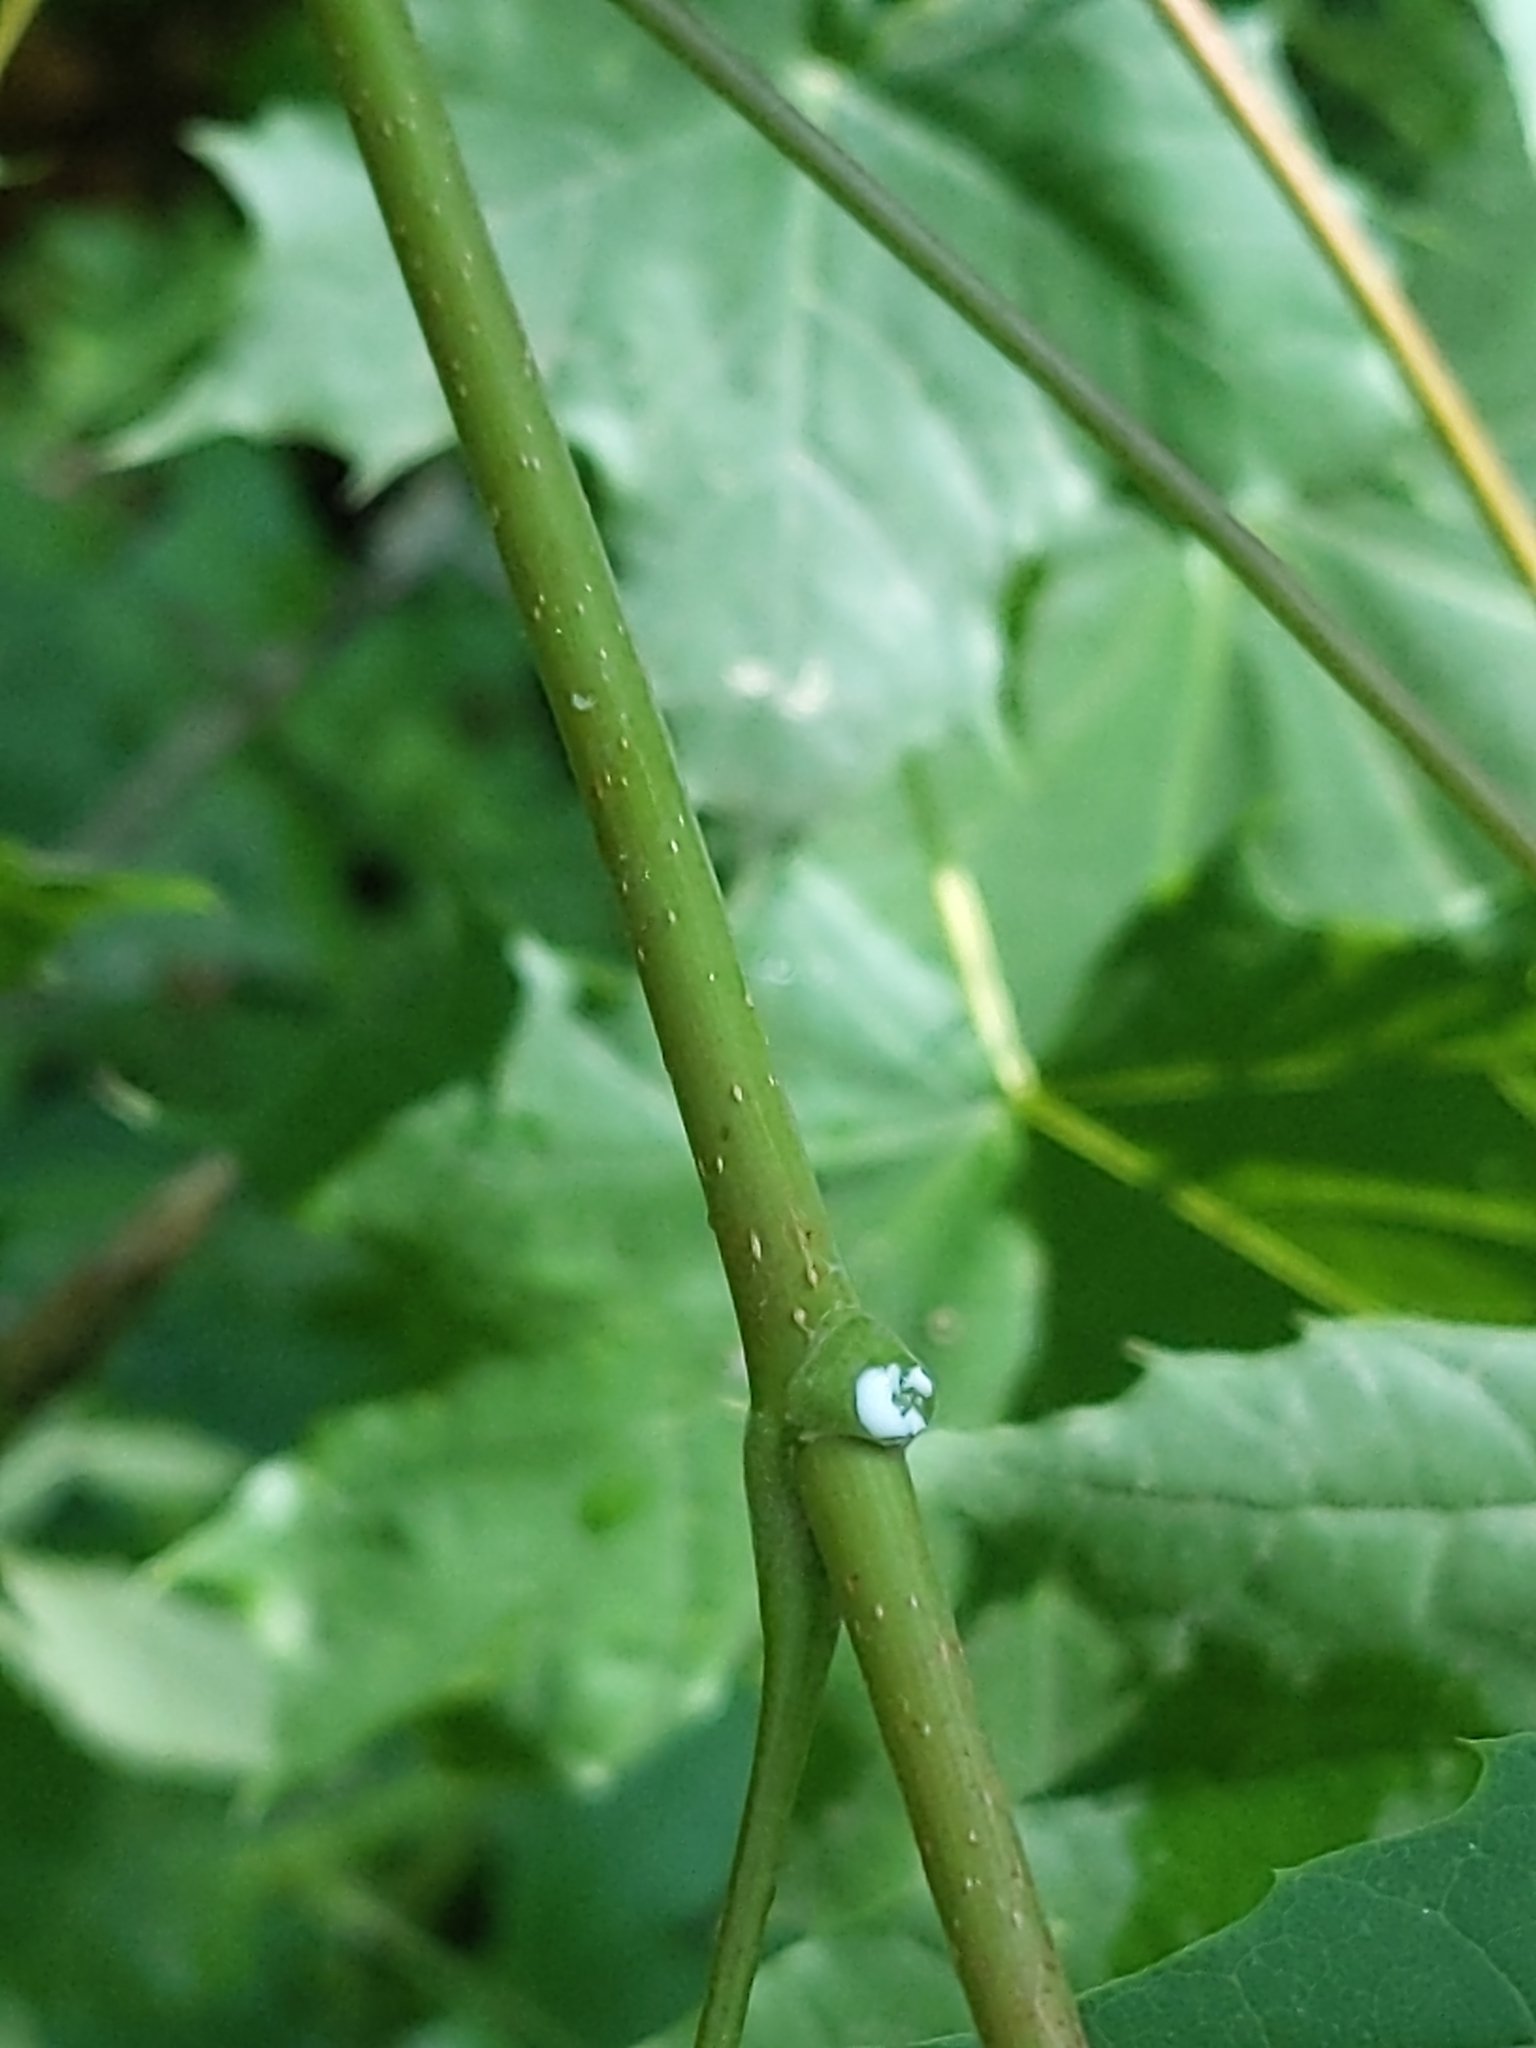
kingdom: Plantae
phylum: Tracheophyta
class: Magnoliopsida
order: Sapindales
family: Sapindaceae
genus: Acer
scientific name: Acer platanoides
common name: Norway maple
